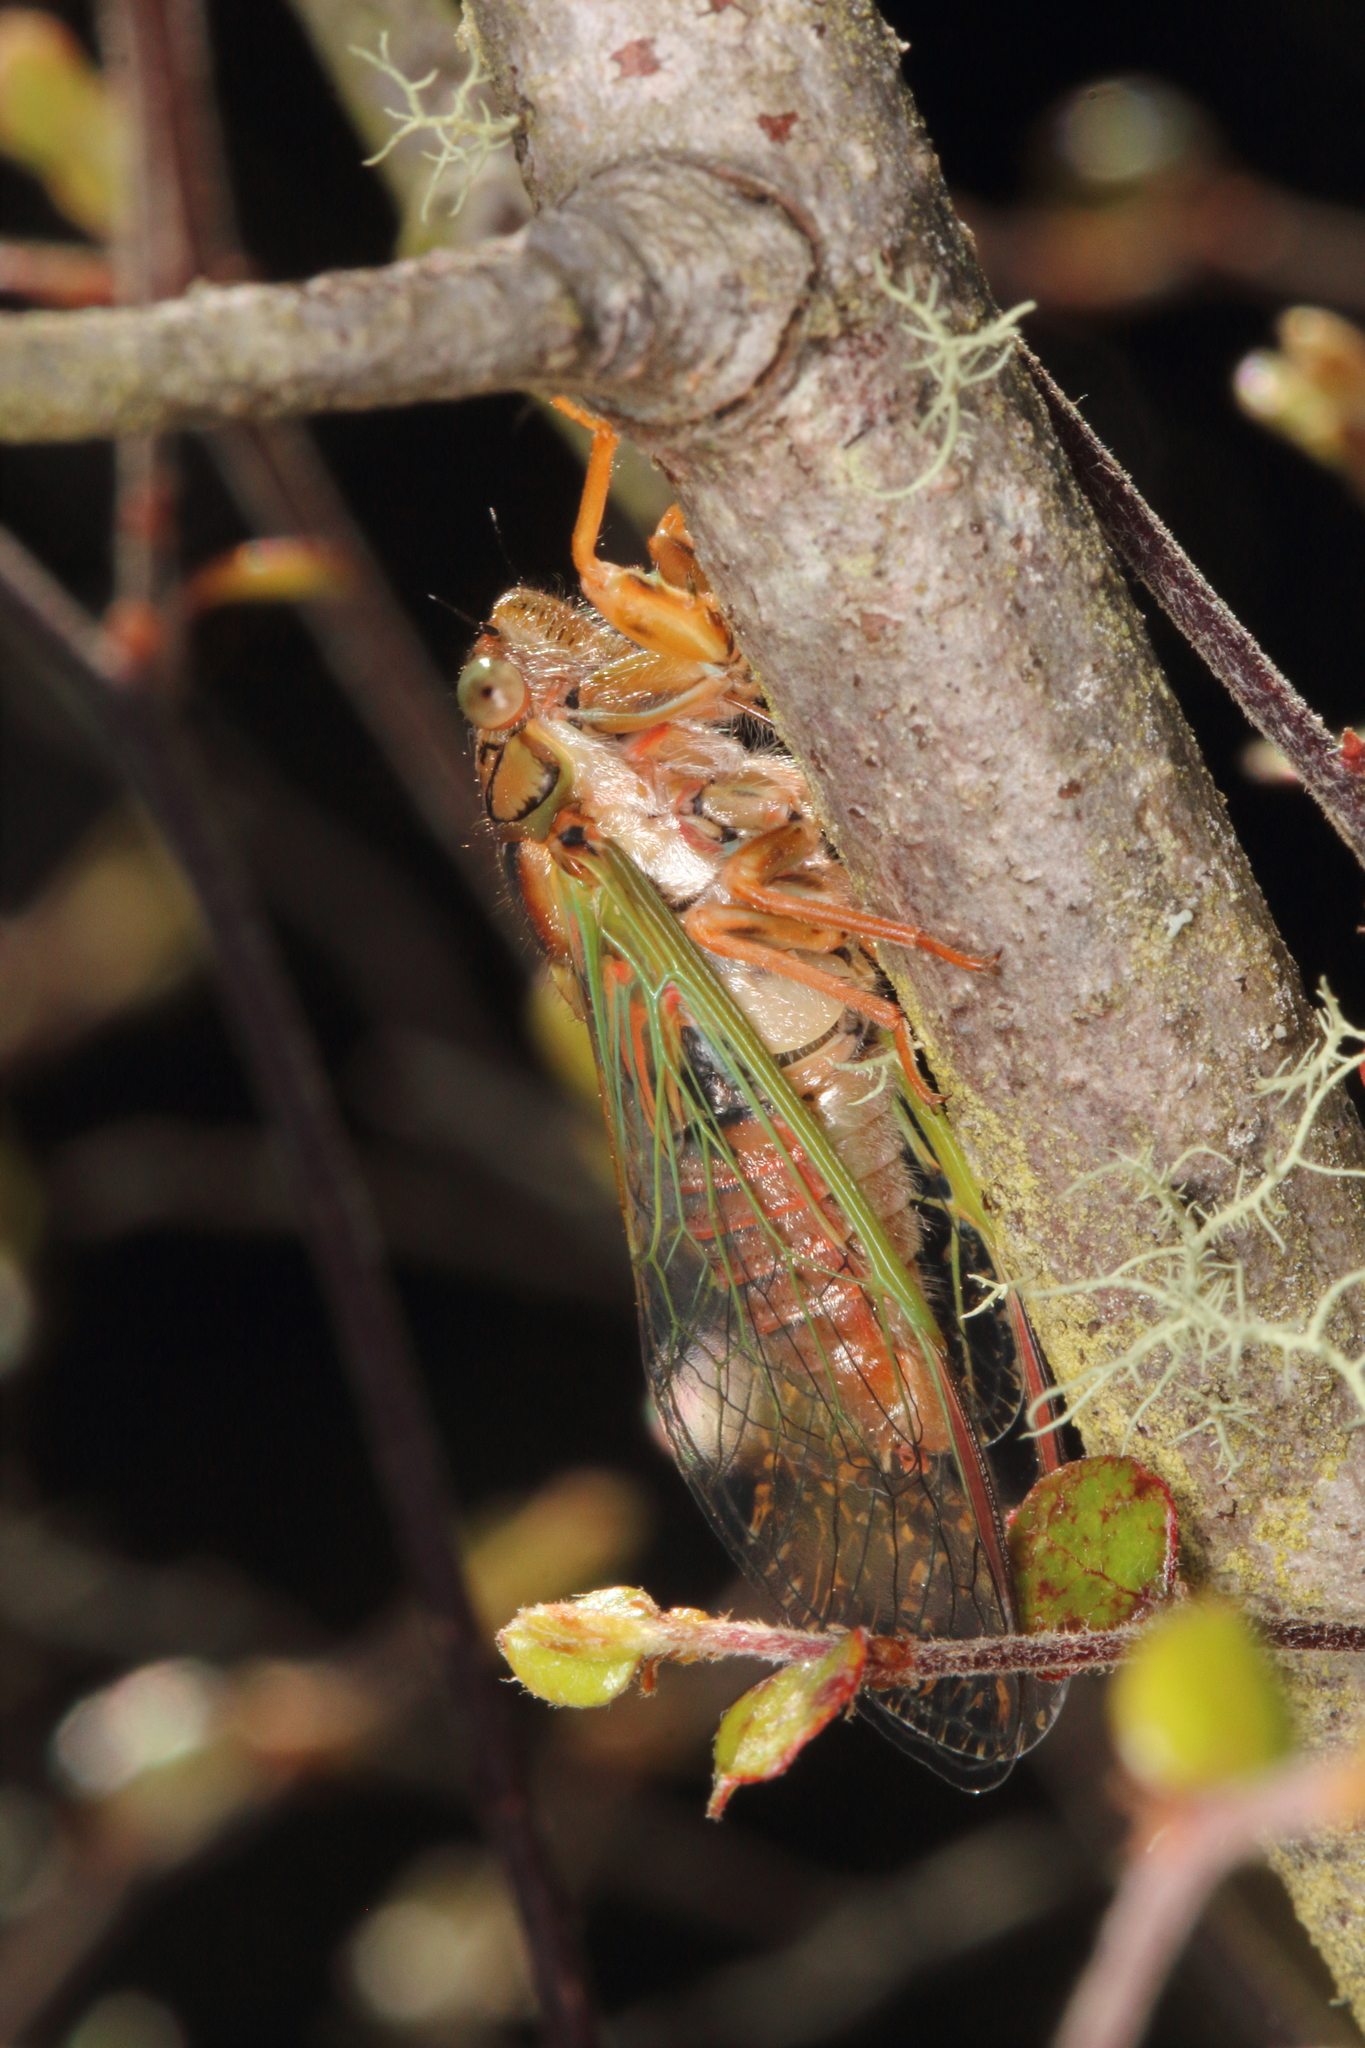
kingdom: Animalia
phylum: Arthropoda
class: Insecta
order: Hemiptera
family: Cicadidae
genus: Rhodopsalta
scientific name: Rhodopsalta cruentata
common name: Blood redtail cicada
